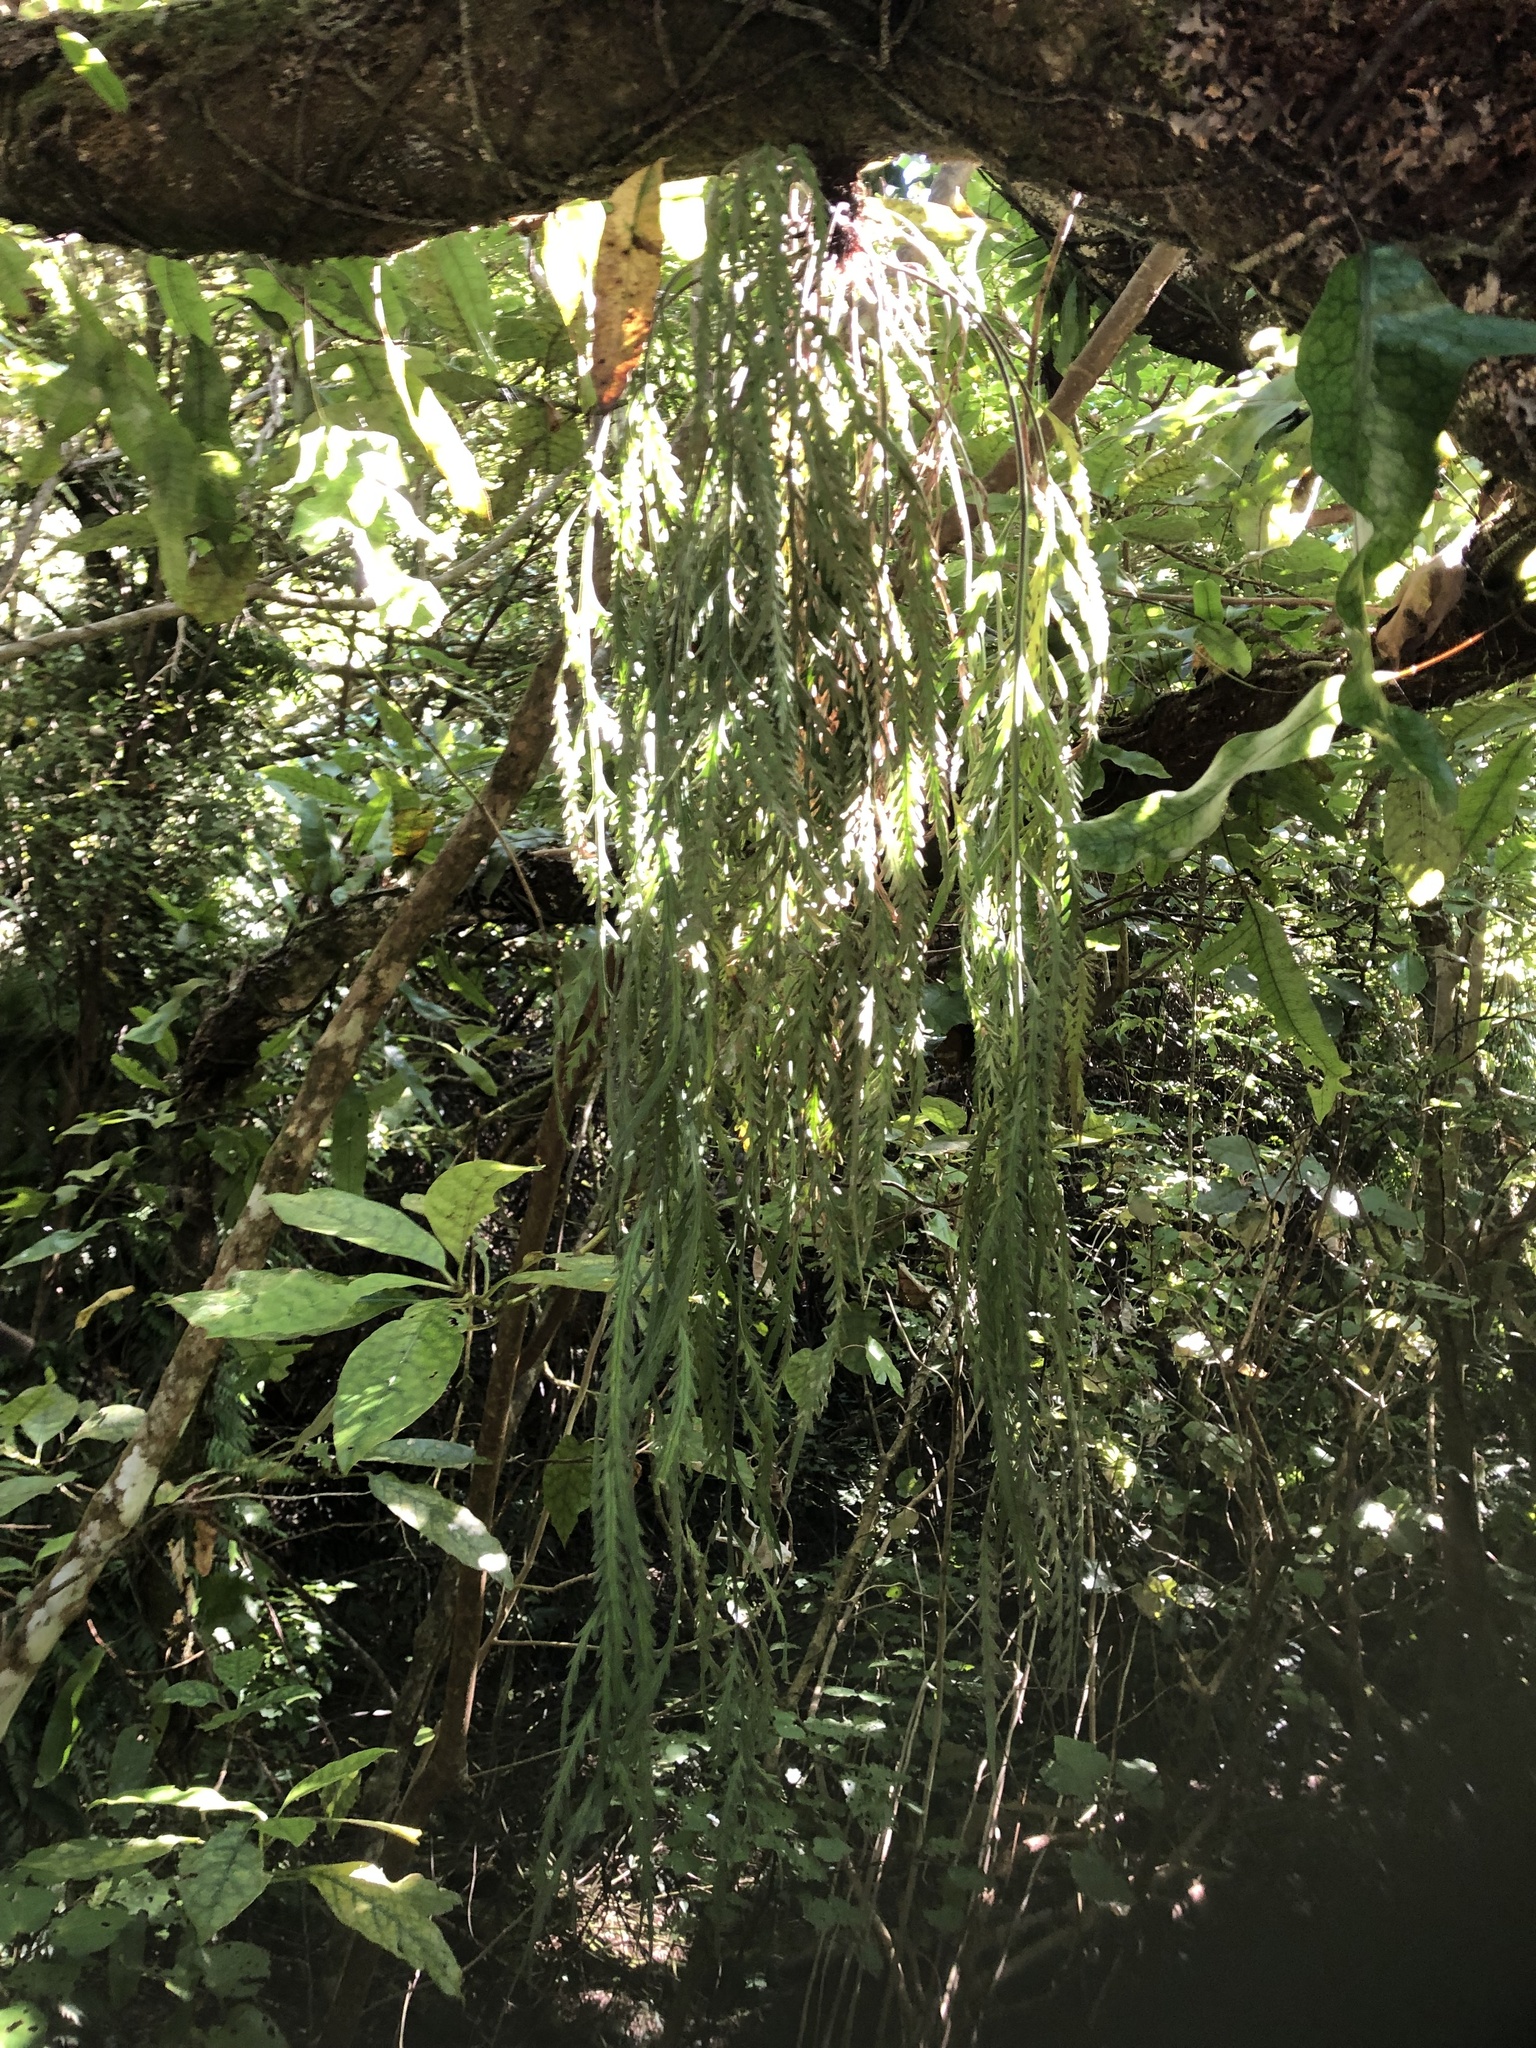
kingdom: Plantae
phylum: Tracheophyta
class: Polypodiopsida
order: Polypodiales
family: Aspleniaceae
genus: Asplenium
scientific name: Asplenium flaccidum
